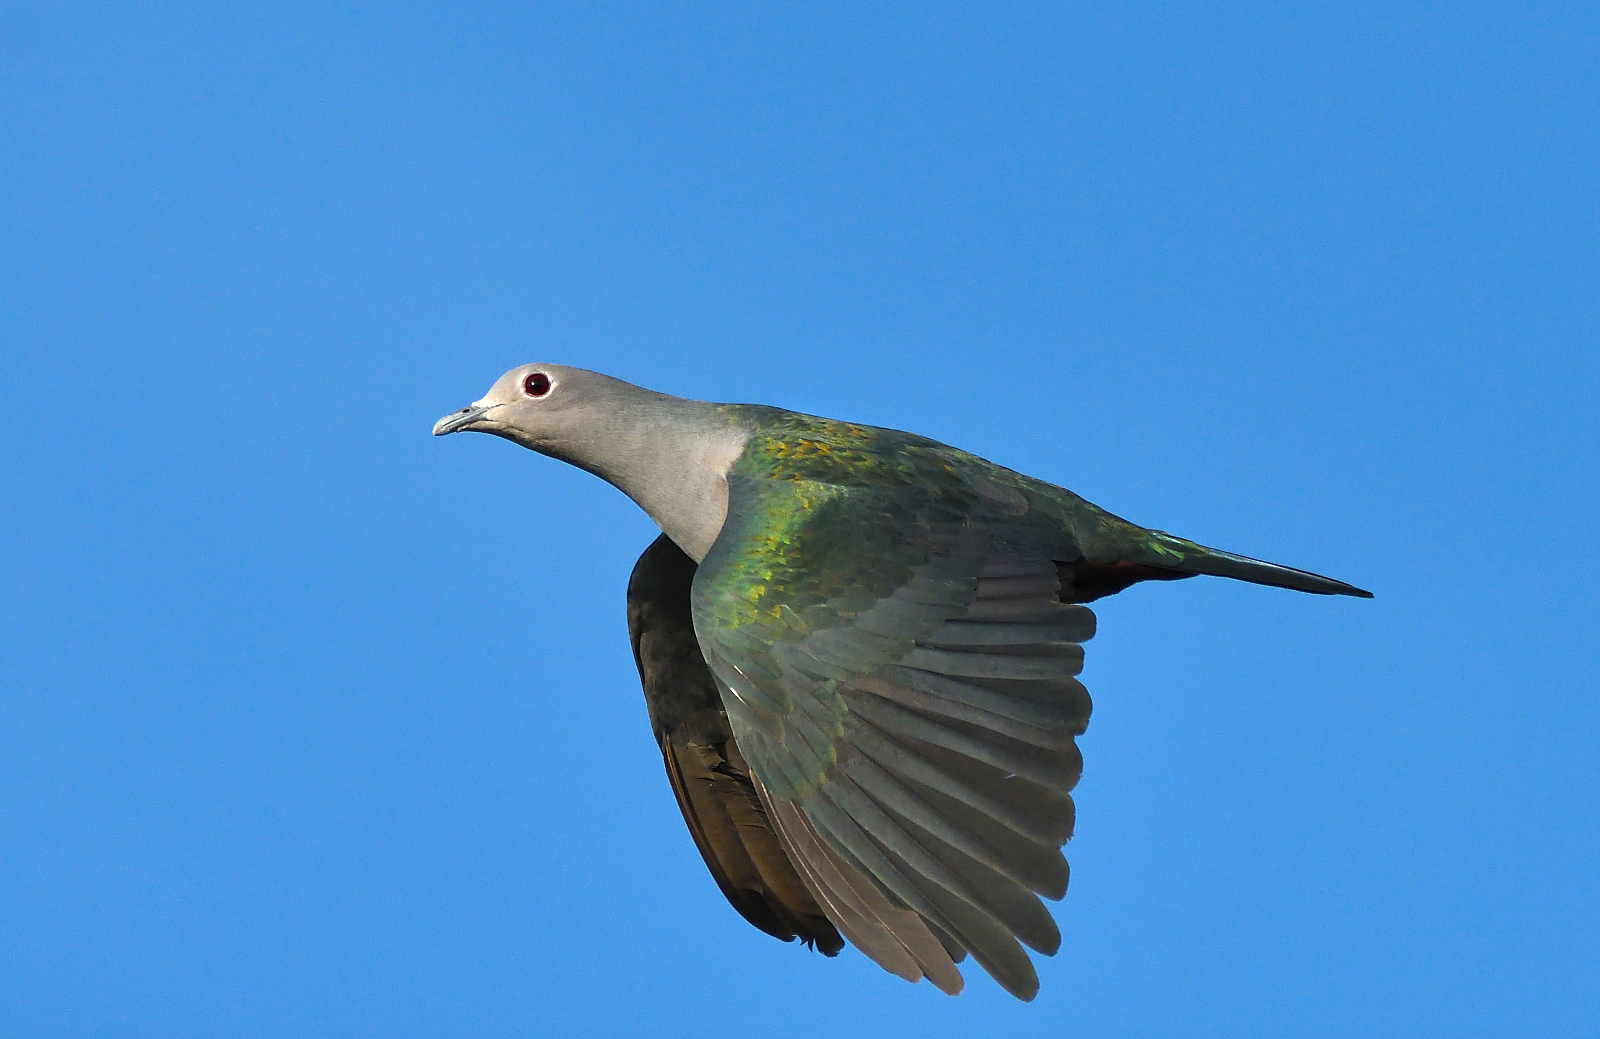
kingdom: Animalia
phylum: Chordata
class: Aves
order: Columbiformes
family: Columbidae
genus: Ducula
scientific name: Ducula aenea
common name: Green imperial pigeon
